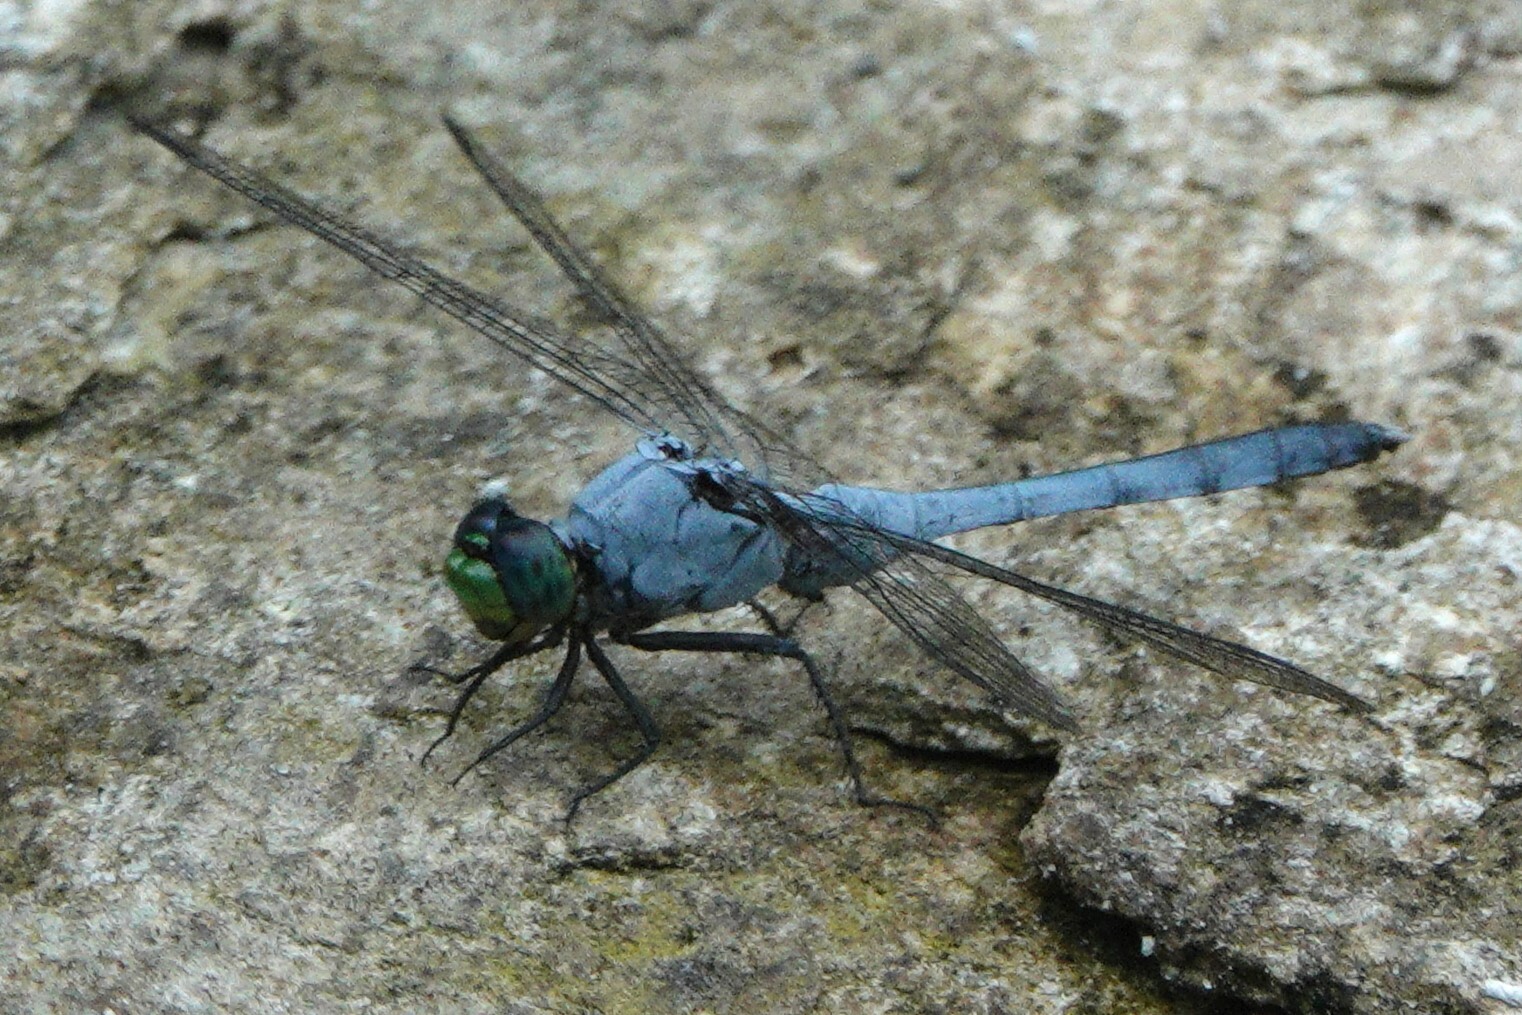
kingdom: Animalia
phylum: Arthropoda
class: Insecta
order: Odonata
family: Libellulidae
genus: Erythemis
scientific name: Erythemis simplicicollis
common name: Eastern pondhawk
